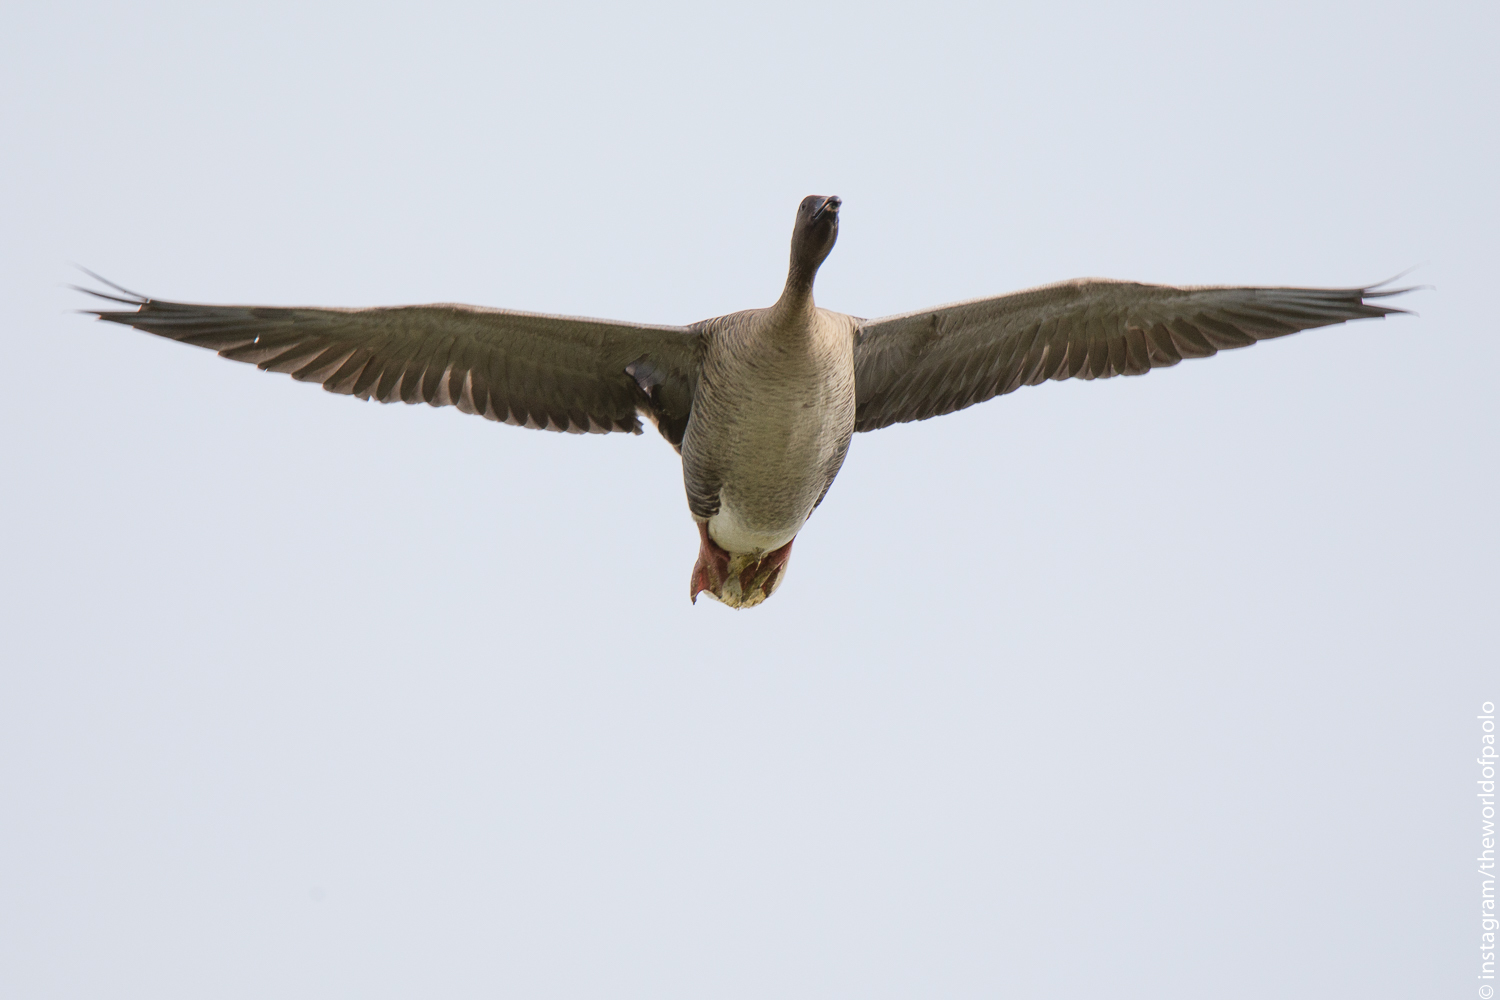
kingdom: Animalia
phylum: Chordata
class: Aves
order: Anseriformes
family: Anatidae
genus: Anser
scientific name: Anser brachyrhynchus
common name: Pink-footed goose
